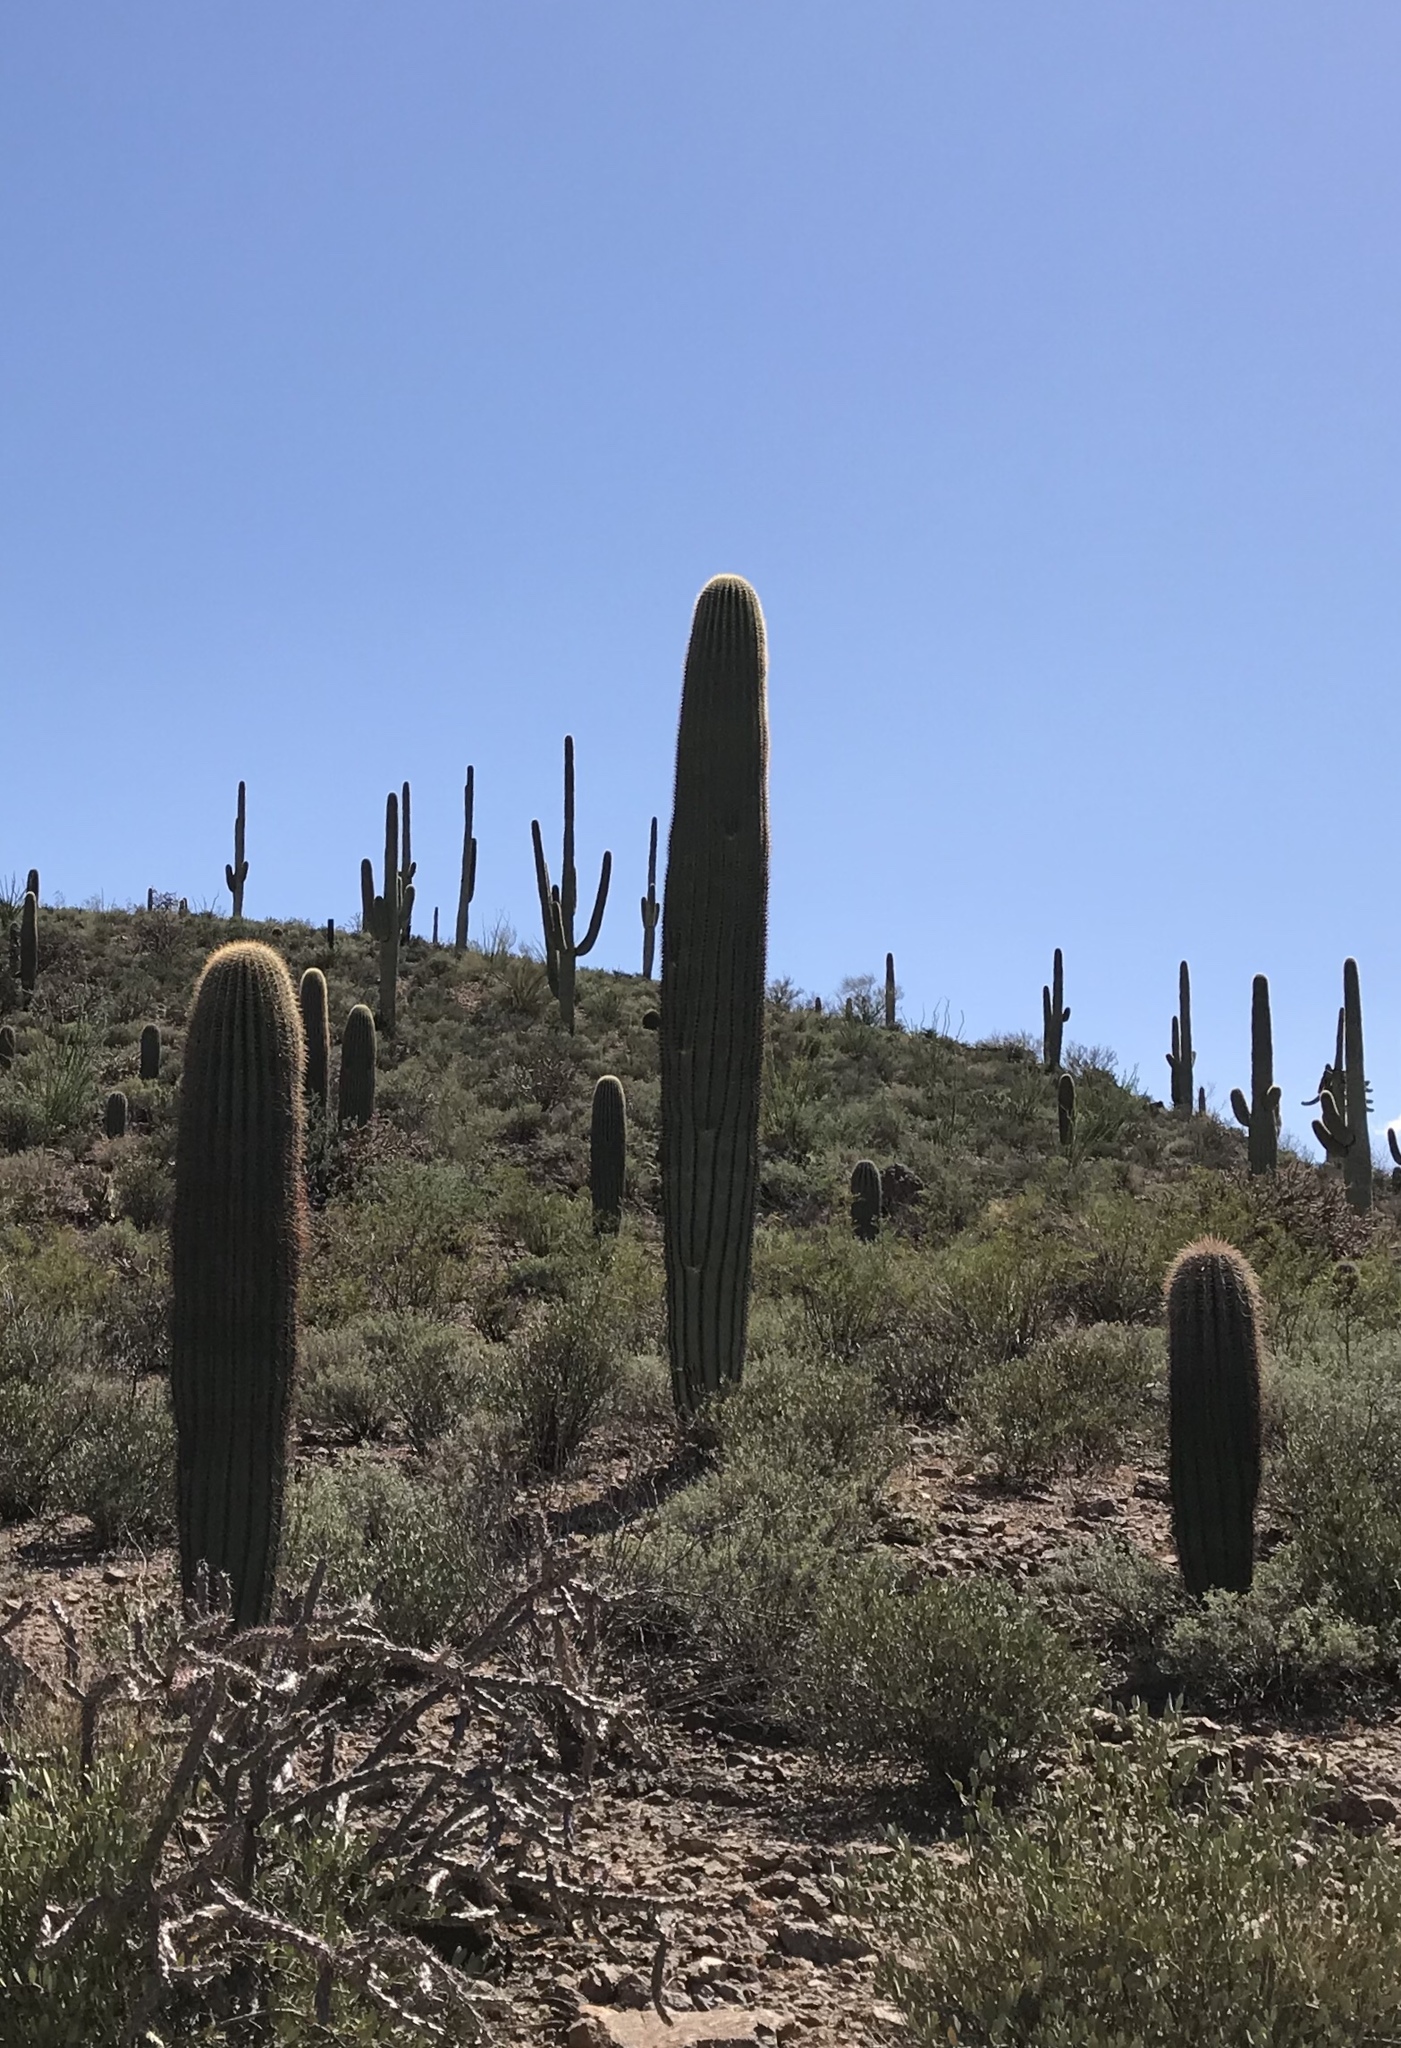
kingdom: Plantae
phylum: Tracheophyta
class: Magnoliopsida
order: Caryophyllales
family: Cactaceae
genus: Carnegiea
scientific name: Carnegiea gigantea
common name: Saguaro
